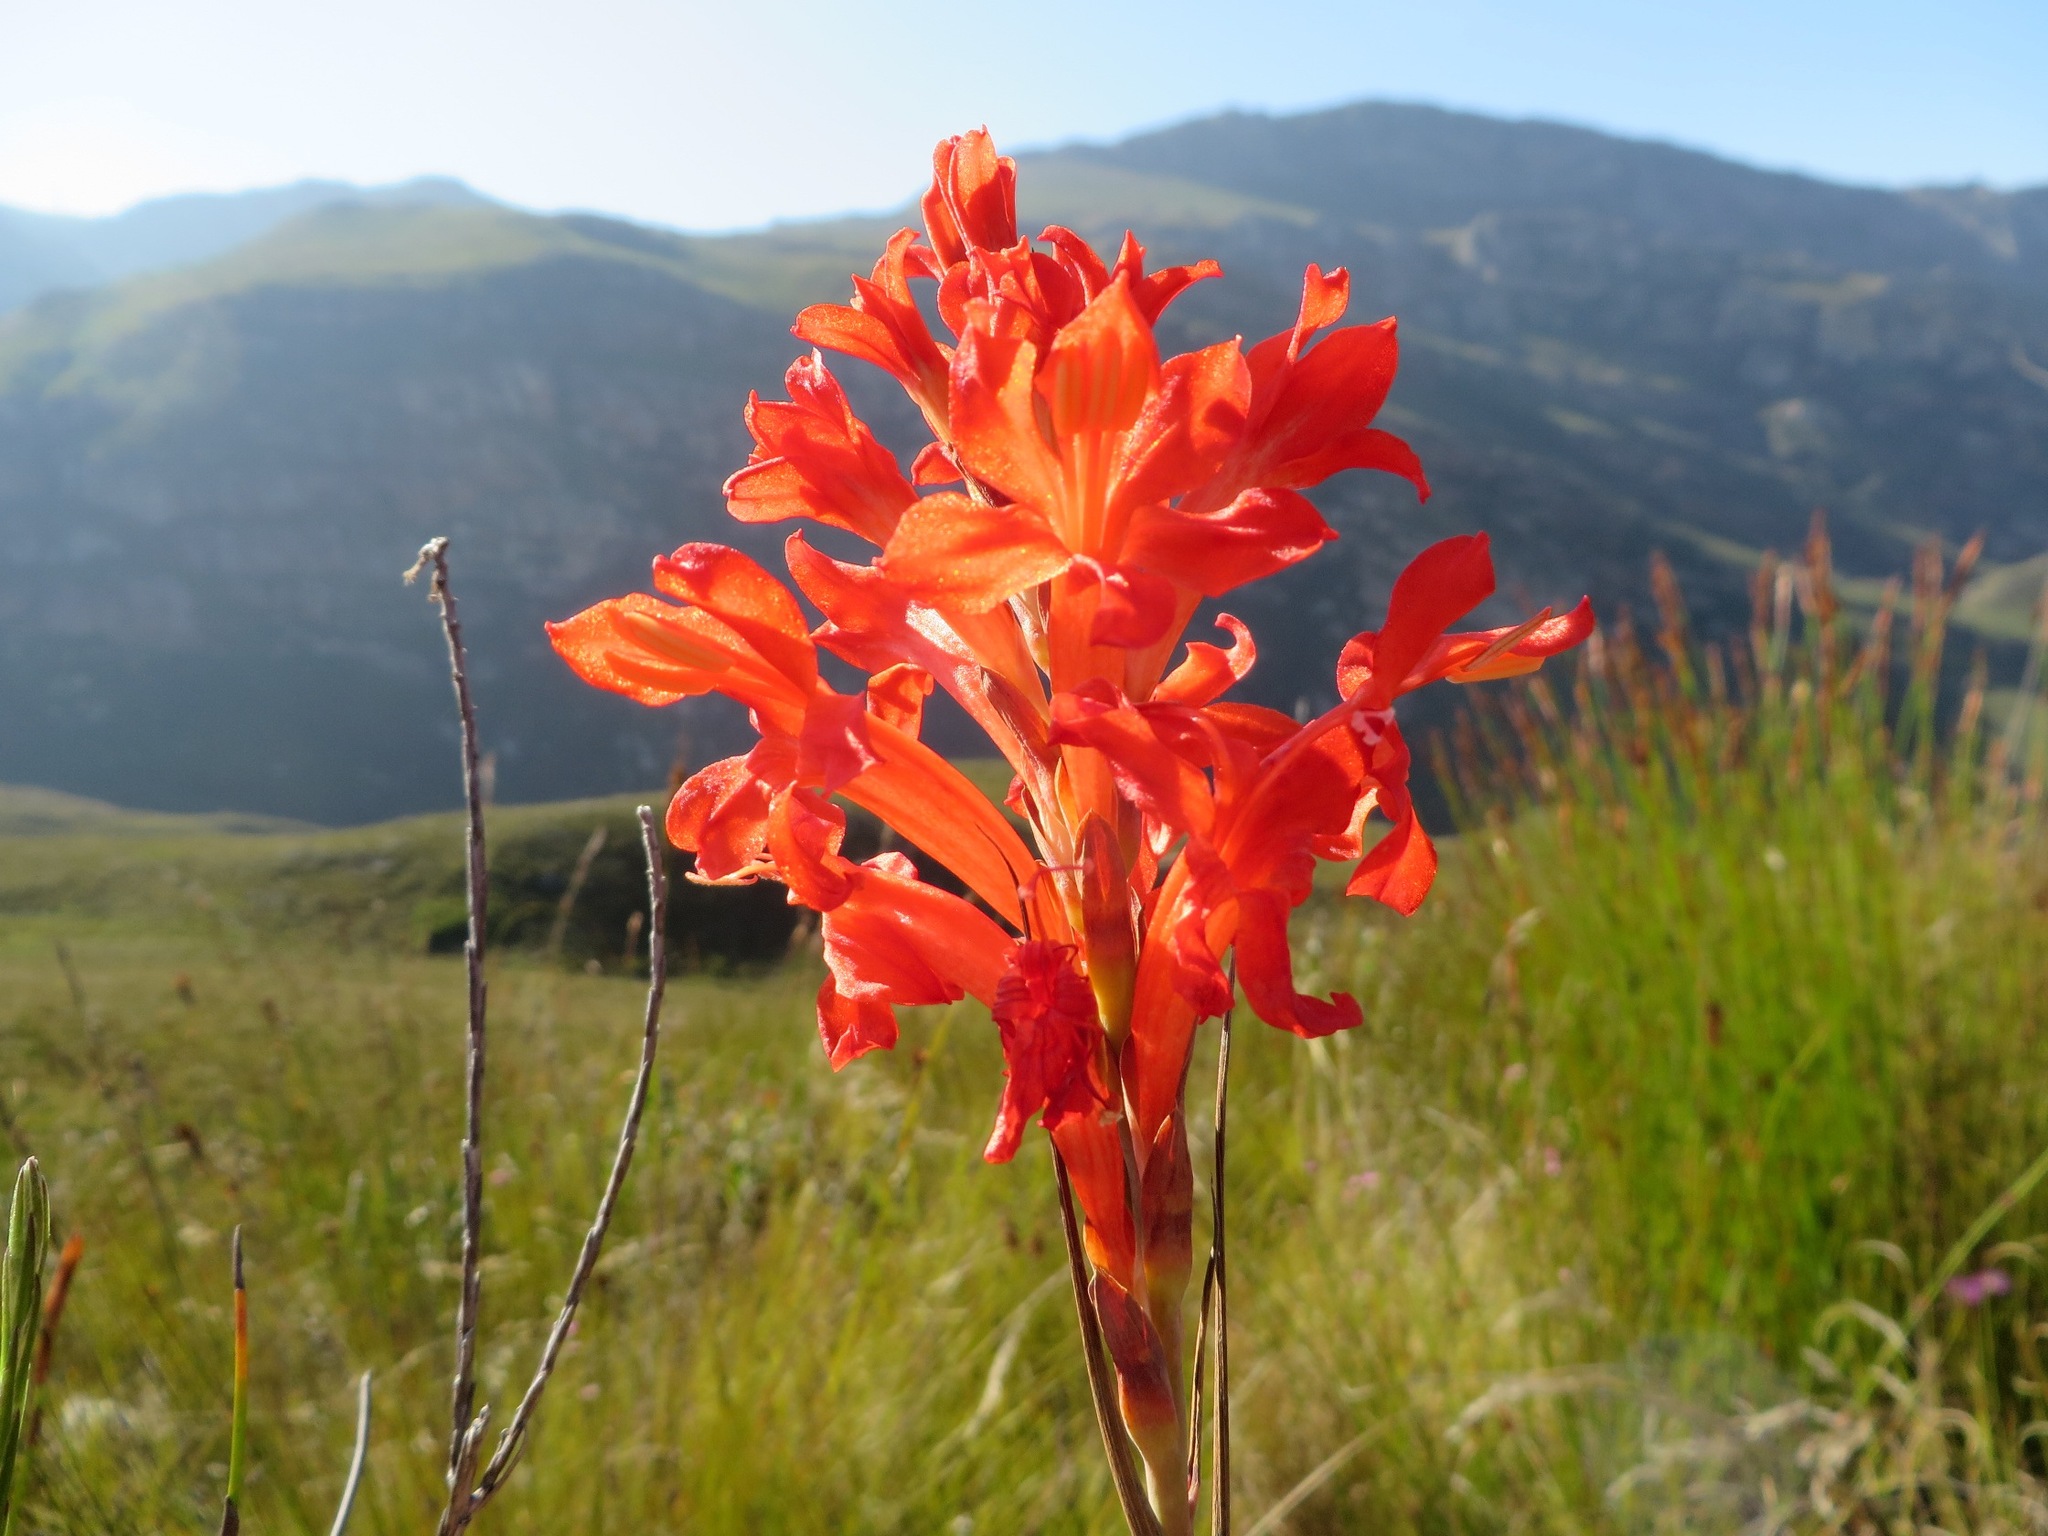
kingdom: Plantae
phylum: Tracheophyta
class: Liliopsida
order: Asparagales
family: Iridaceae
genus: Tritoniopsis
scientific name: Tritoniopsis triticea
